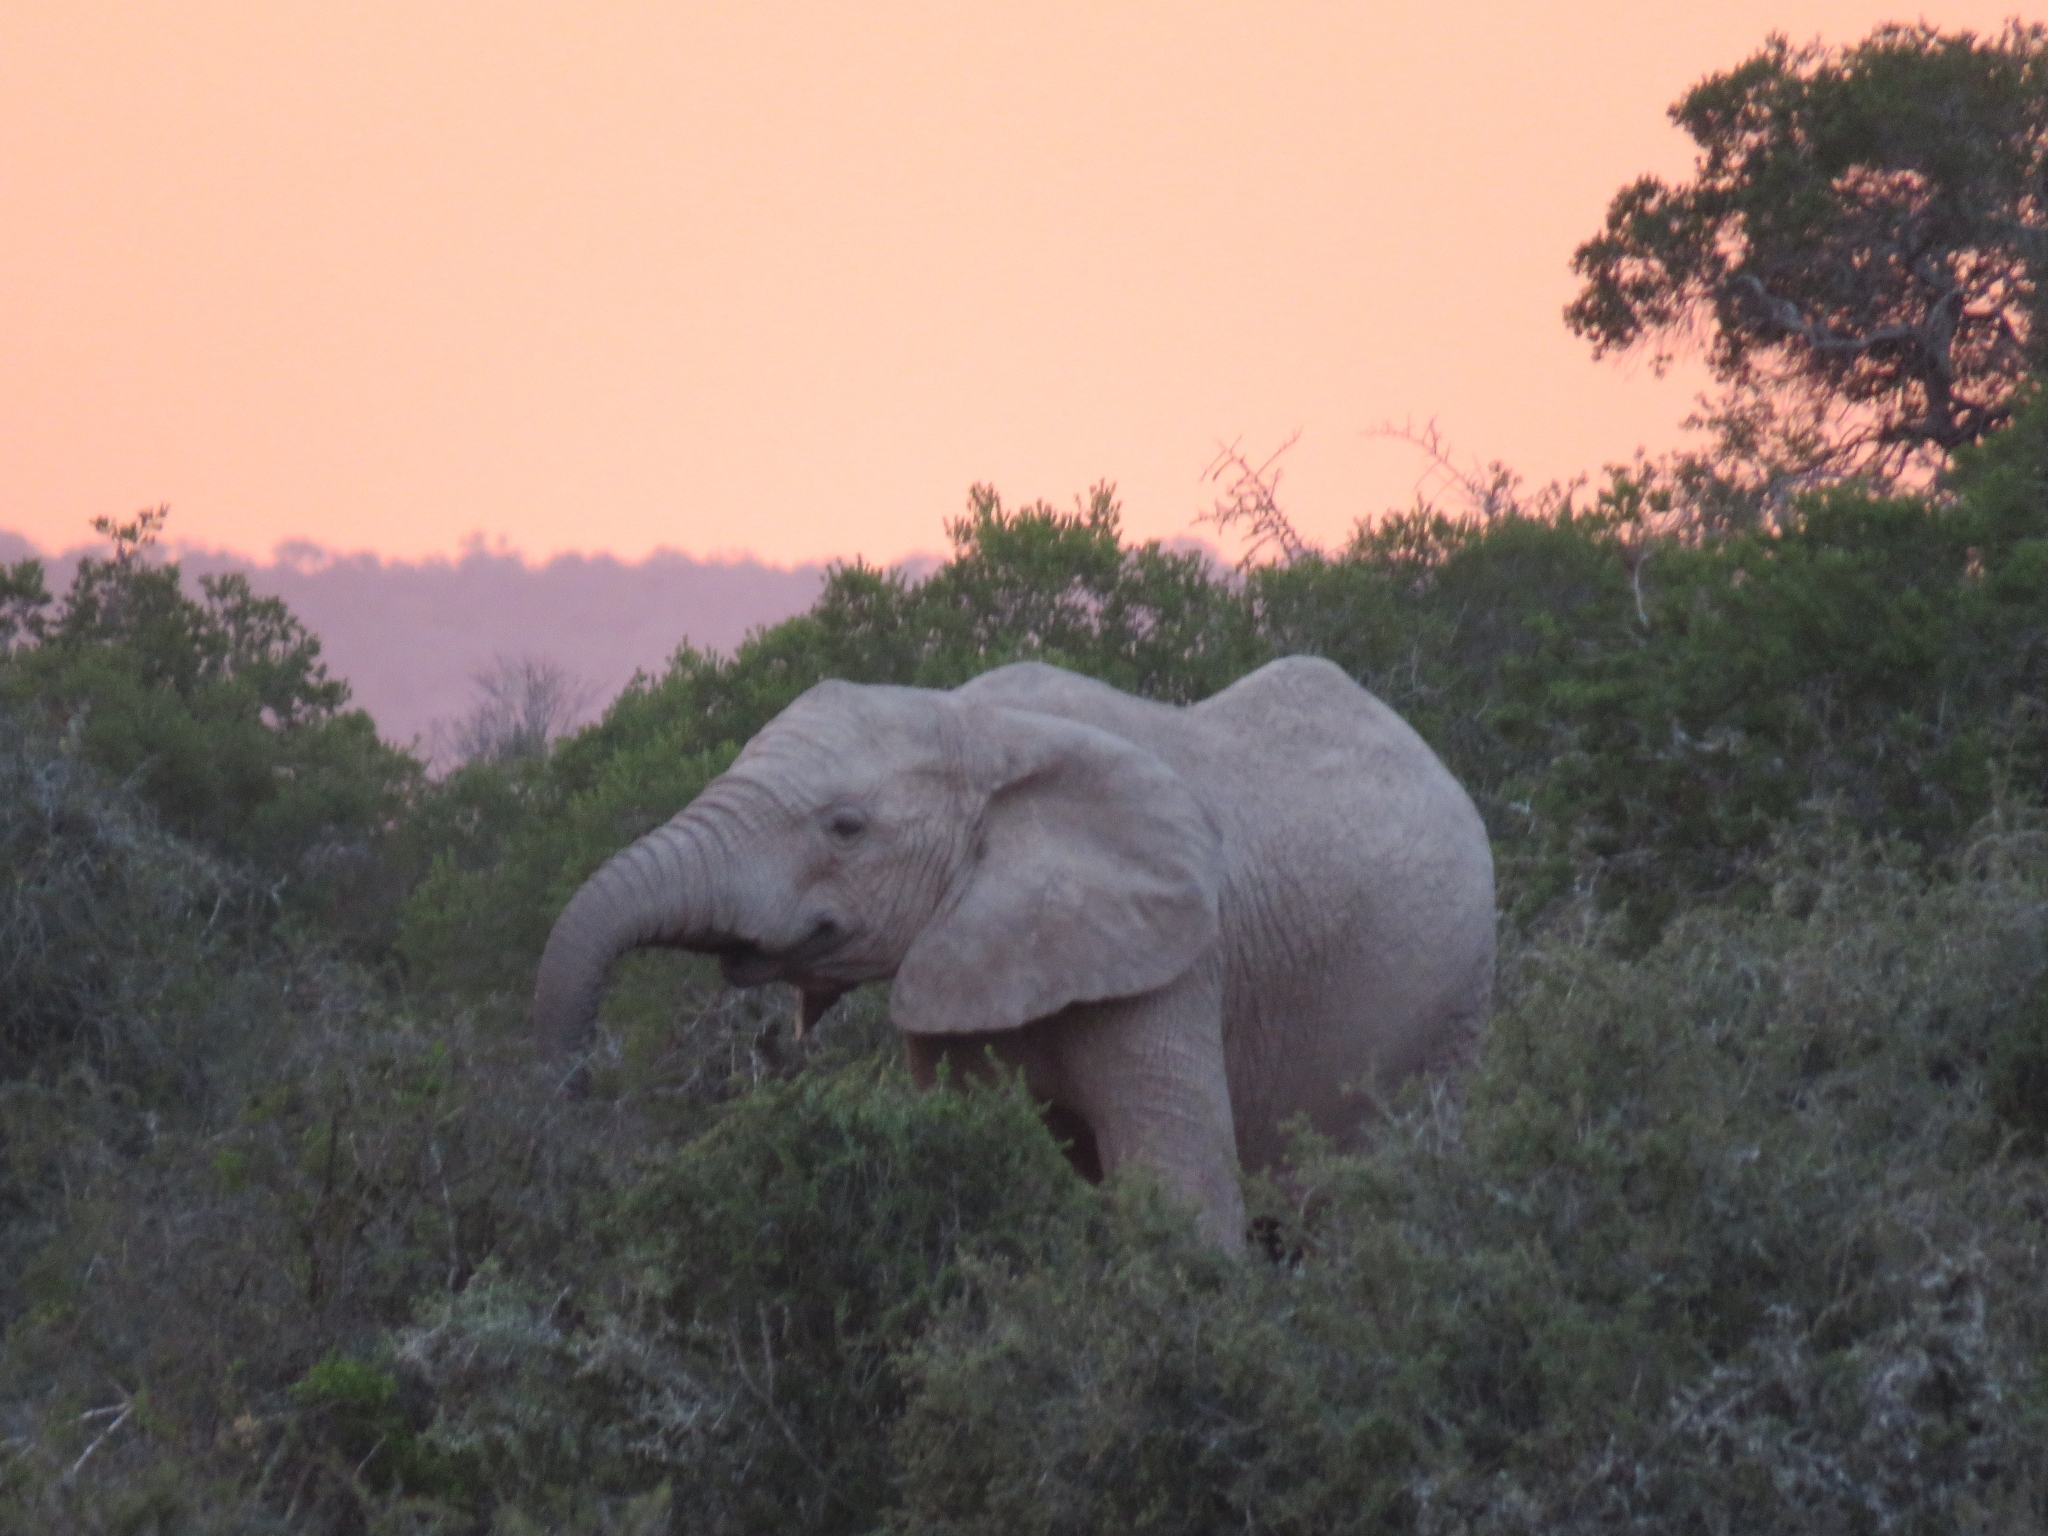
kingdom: Animalia
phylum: Chordata
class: Mammalia
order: Proboscidea
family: Elephantidae
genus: Loxodonta
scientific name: Loxodonta africana
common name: African elephant
